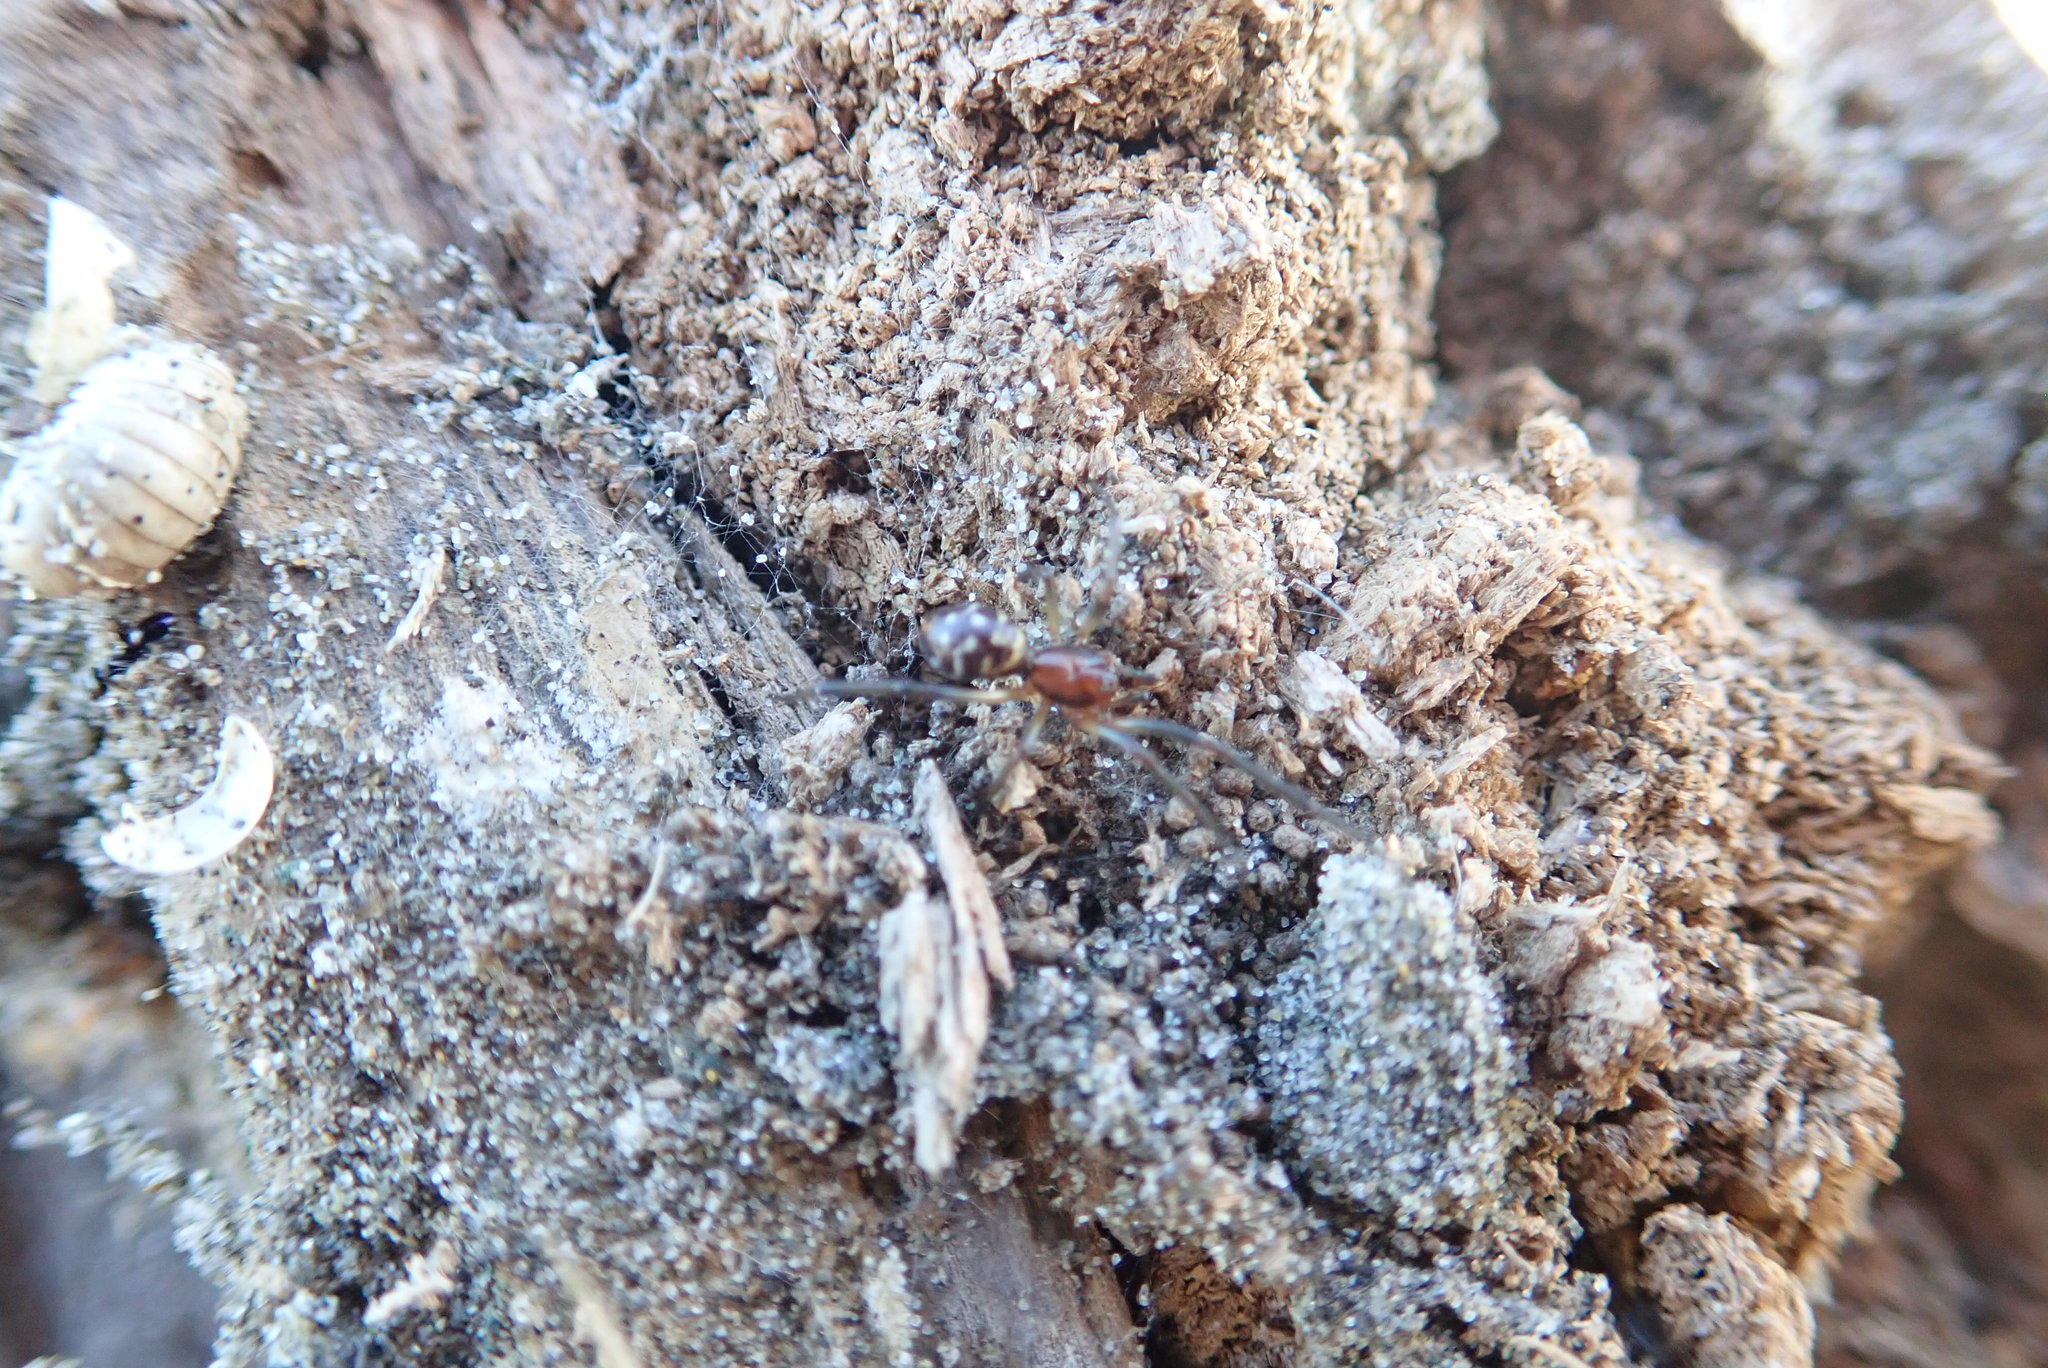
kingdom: Animalia
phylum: Arthropoda
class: Arachnida
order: Araneae
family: Theridiidae
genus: Steatoda
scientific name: Steatoda capensis
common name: Cobweb weaver
